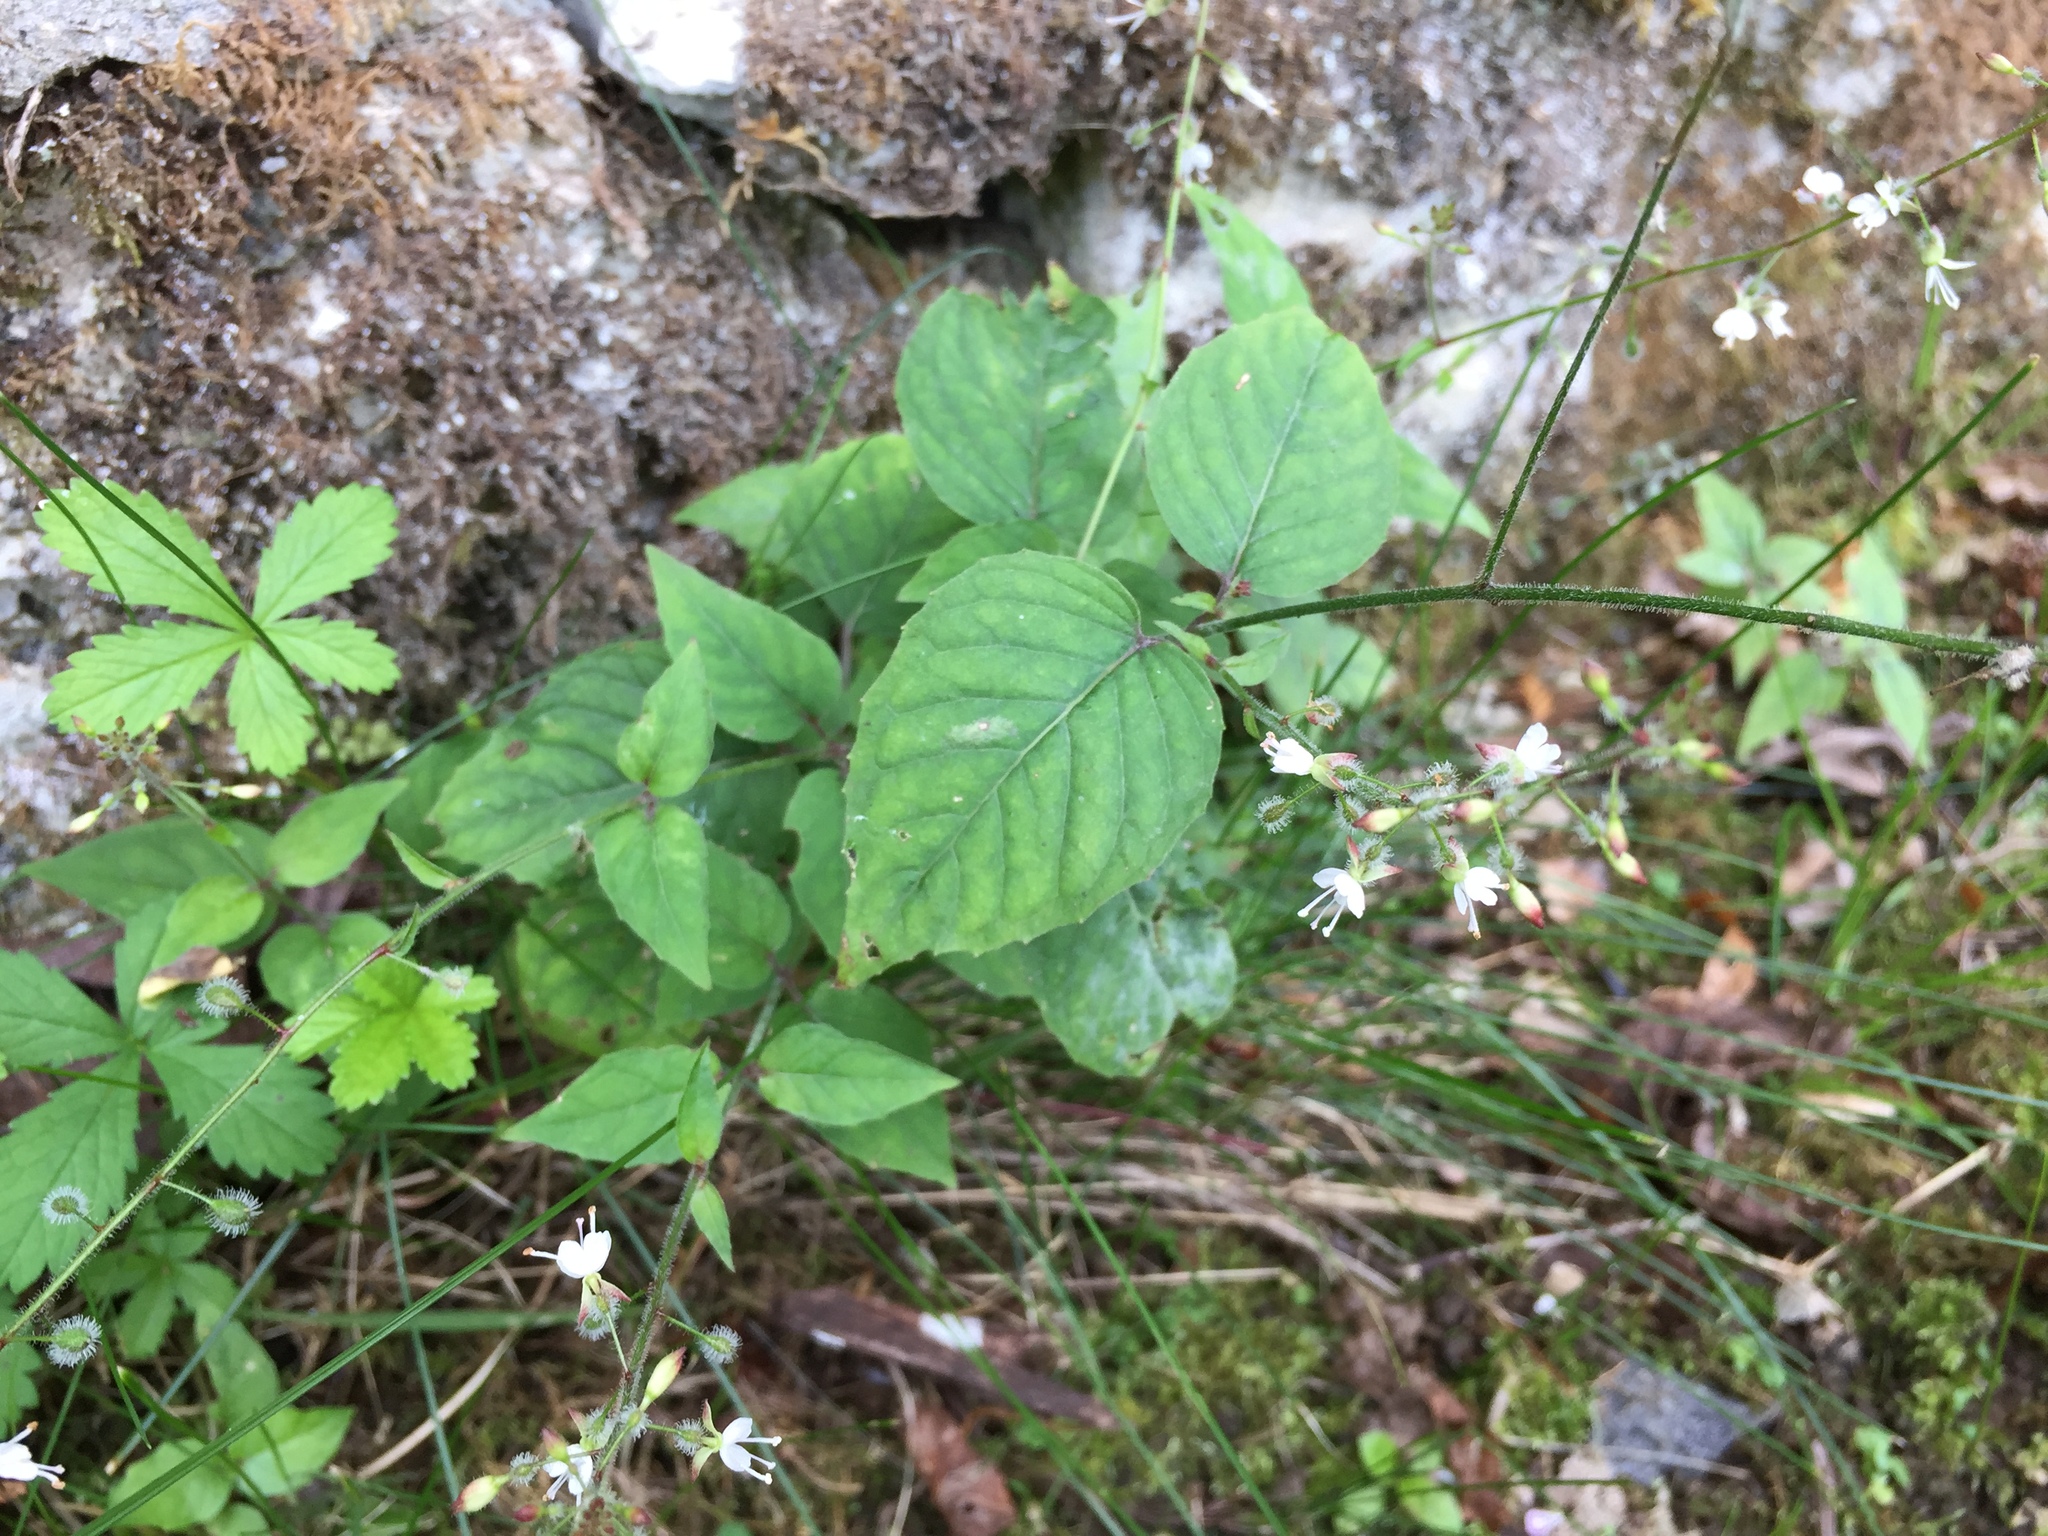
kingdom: Plantae
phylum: Tracheophyta
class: Magnoliopsida
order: Myrtales
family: Onagraceae
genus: Circaea
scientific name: Circaea lutetiana
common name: Enchanter's-nightshade
